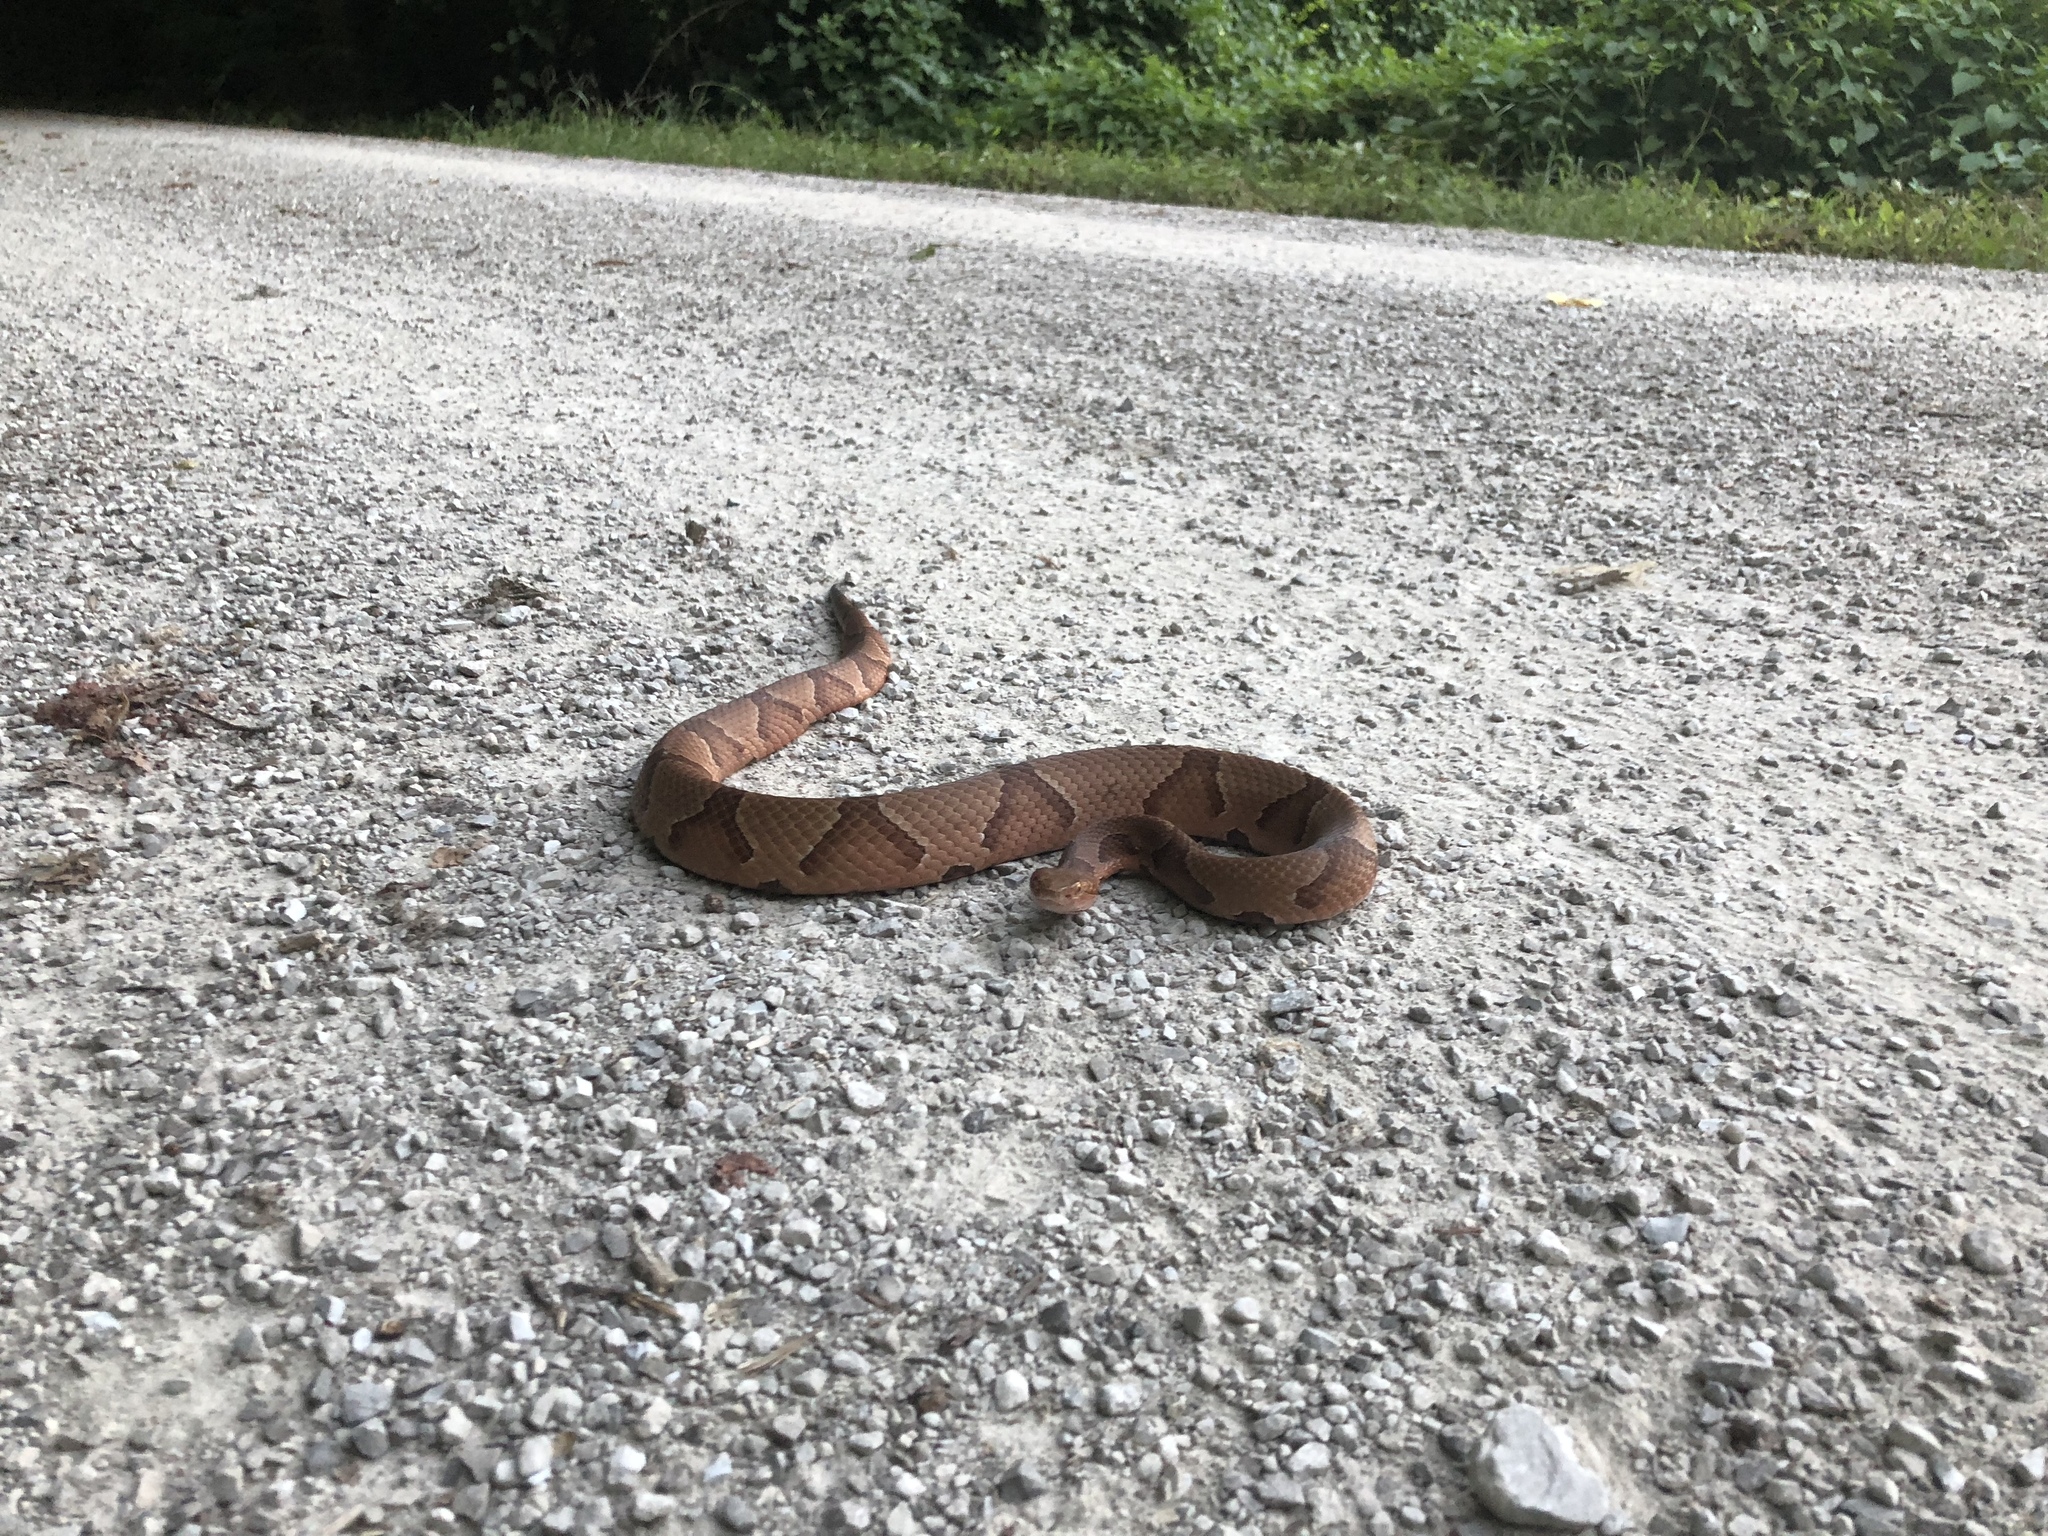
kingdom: Animalia
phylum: Chordata
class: Squamata
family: Viperidae
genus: Agkistrodon
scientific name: Agkistrodon contortrix
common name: Northern copperhead
